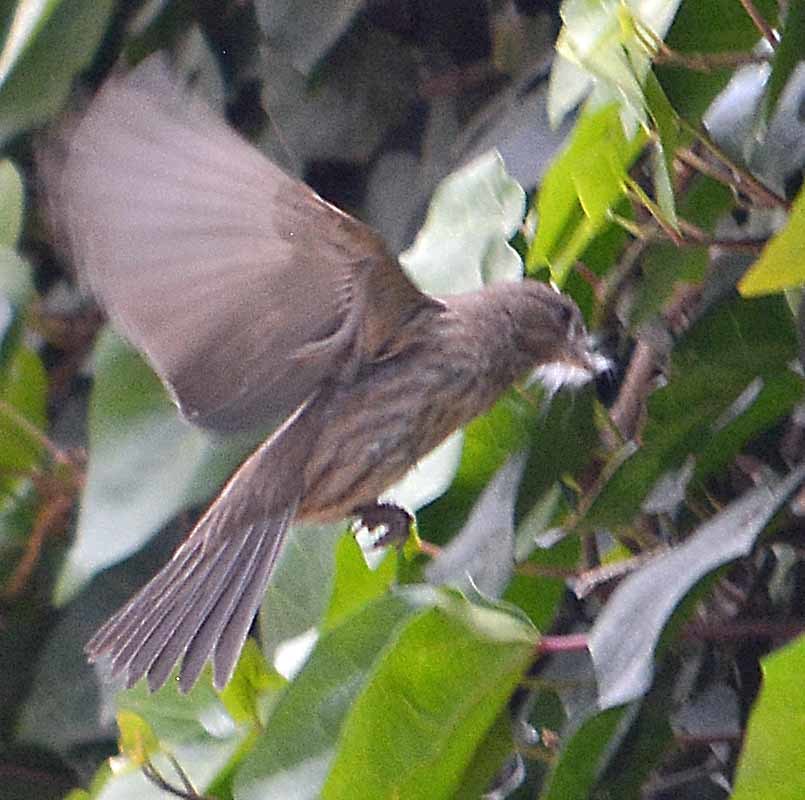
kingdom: Animalia
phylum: Chordata
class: Aves
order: Passeriformes
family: Fringillidae
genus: Haemorhous
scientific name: Haemorhous mexicanus
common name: House finch
